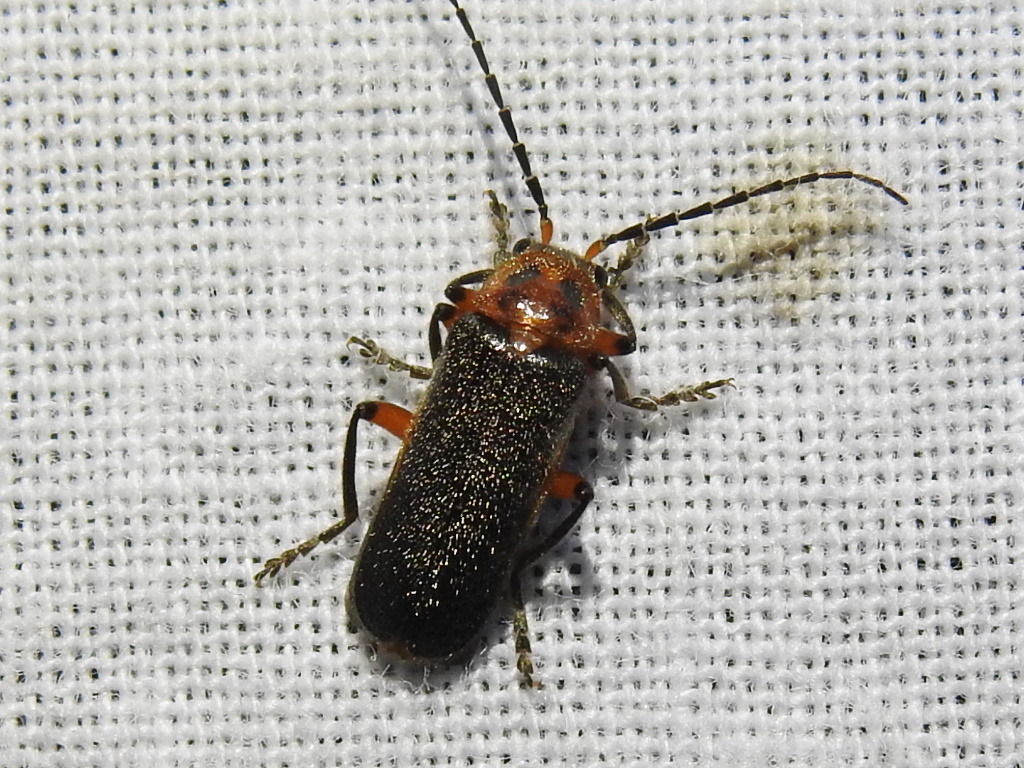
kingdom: Animalia
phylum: Arthropoda
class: Insecta
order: Coleoptera
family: Cantharidae
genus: Atalantycha
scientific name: Atalantycha bilineata
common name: Two-lined leatherwing
